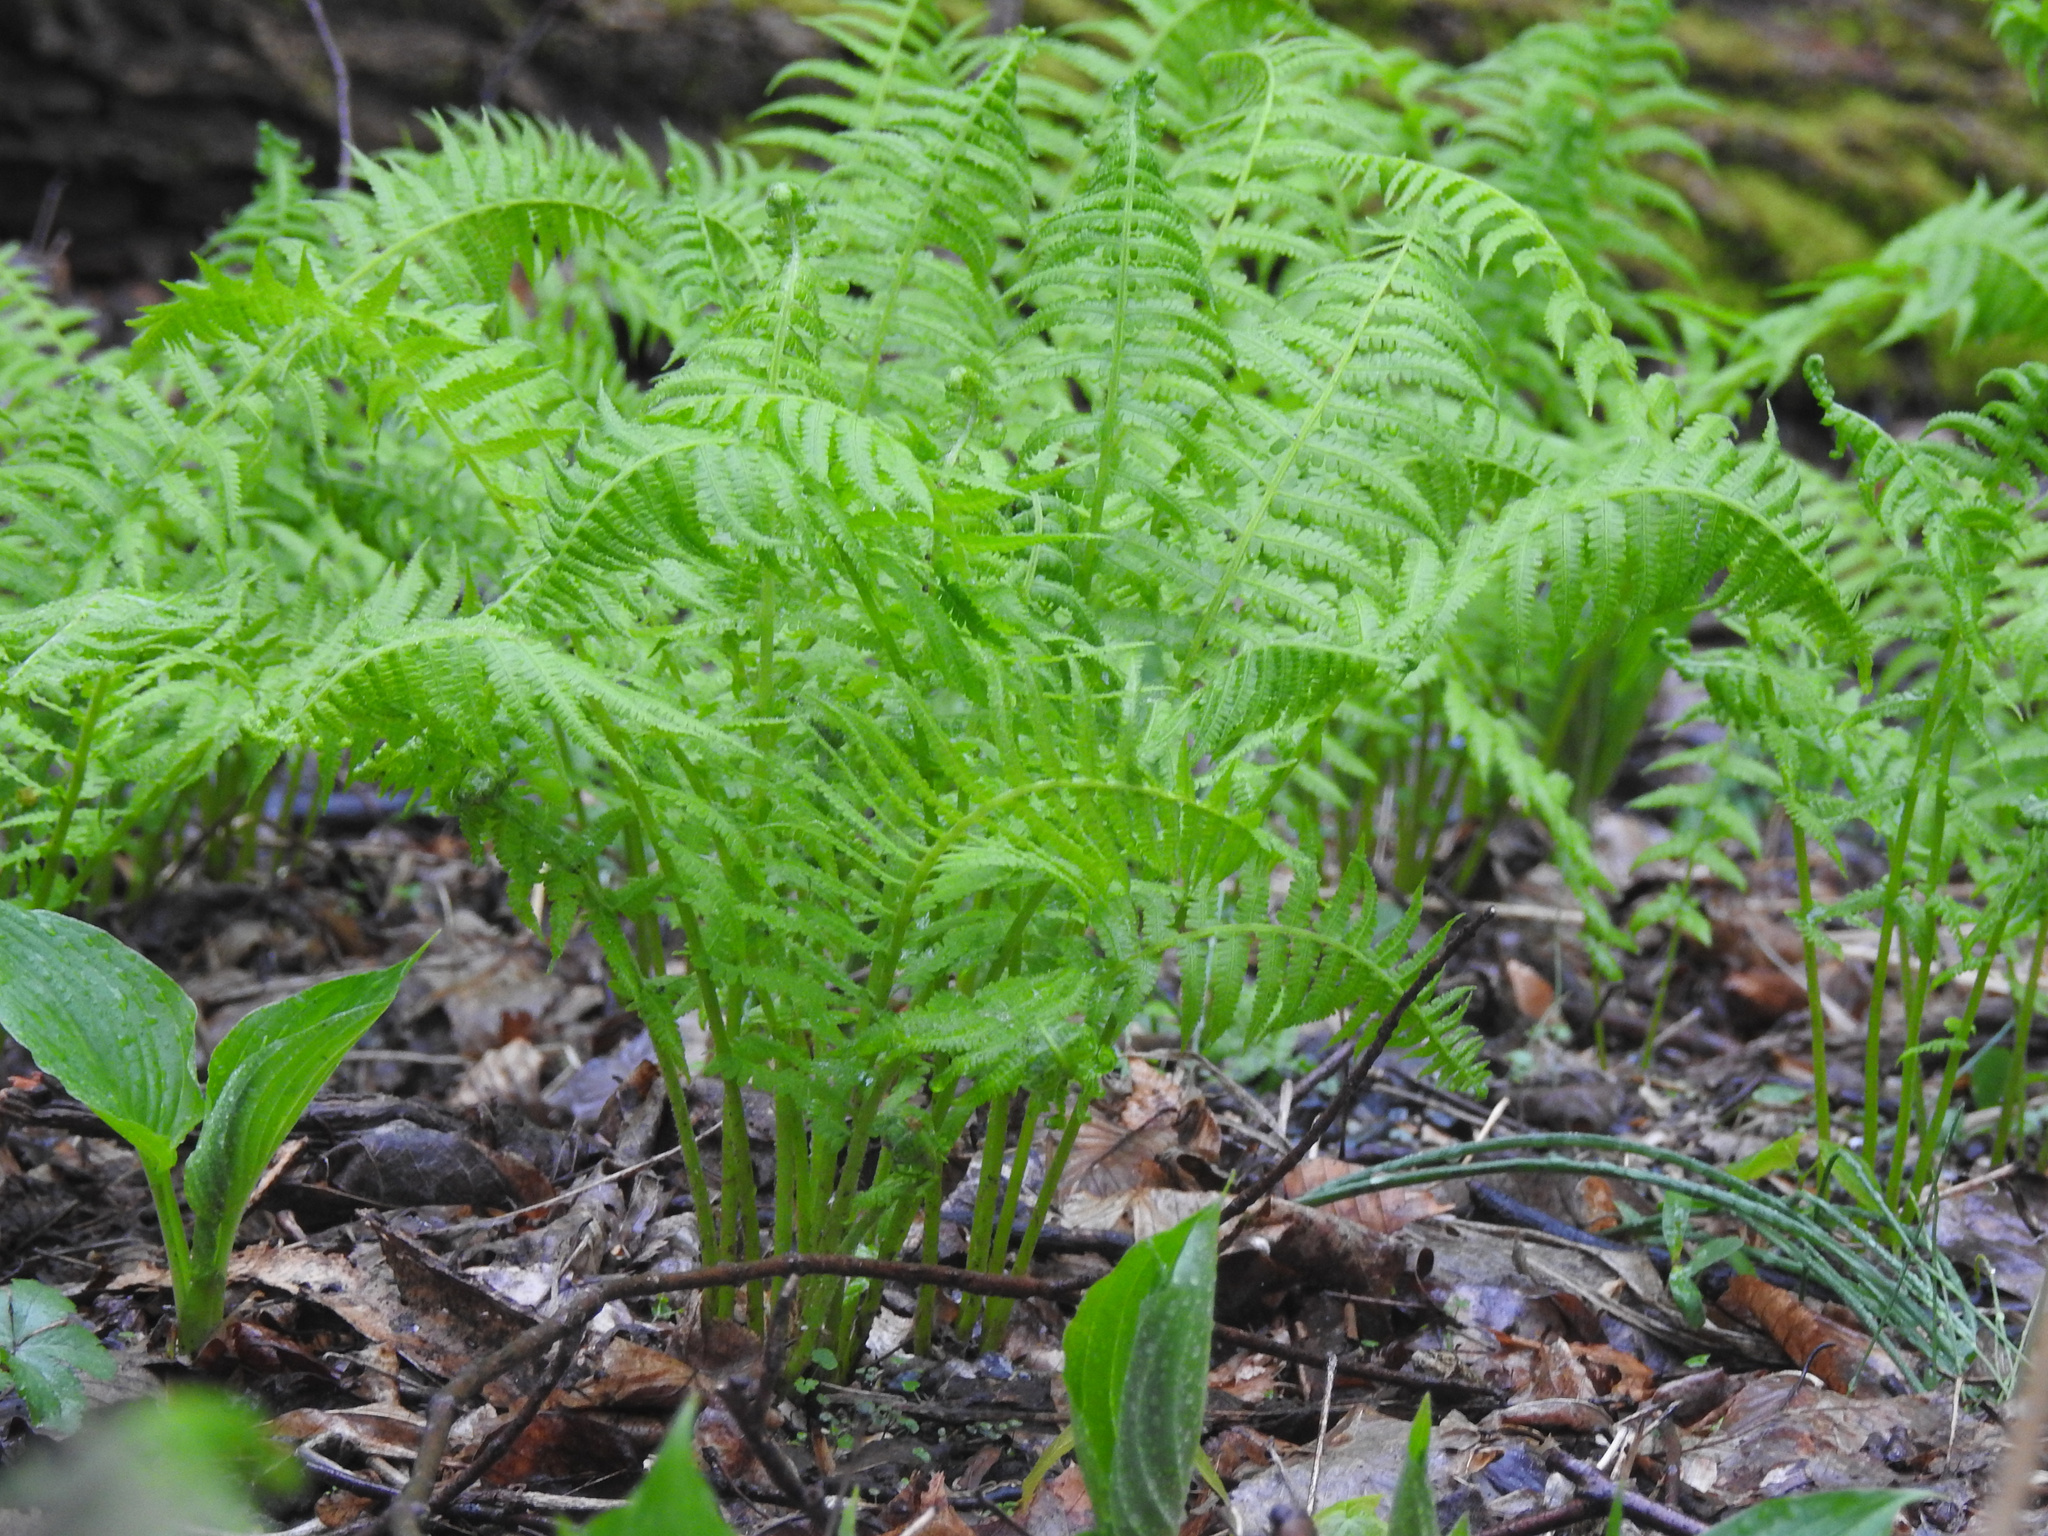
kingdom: Plantae
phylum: Tracheophyta
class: Polypodiopsida
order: Polypodiales
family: Athyriaceae
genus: Deparia
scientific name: Deparia acrostichoides
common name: Silver false spleenwort
